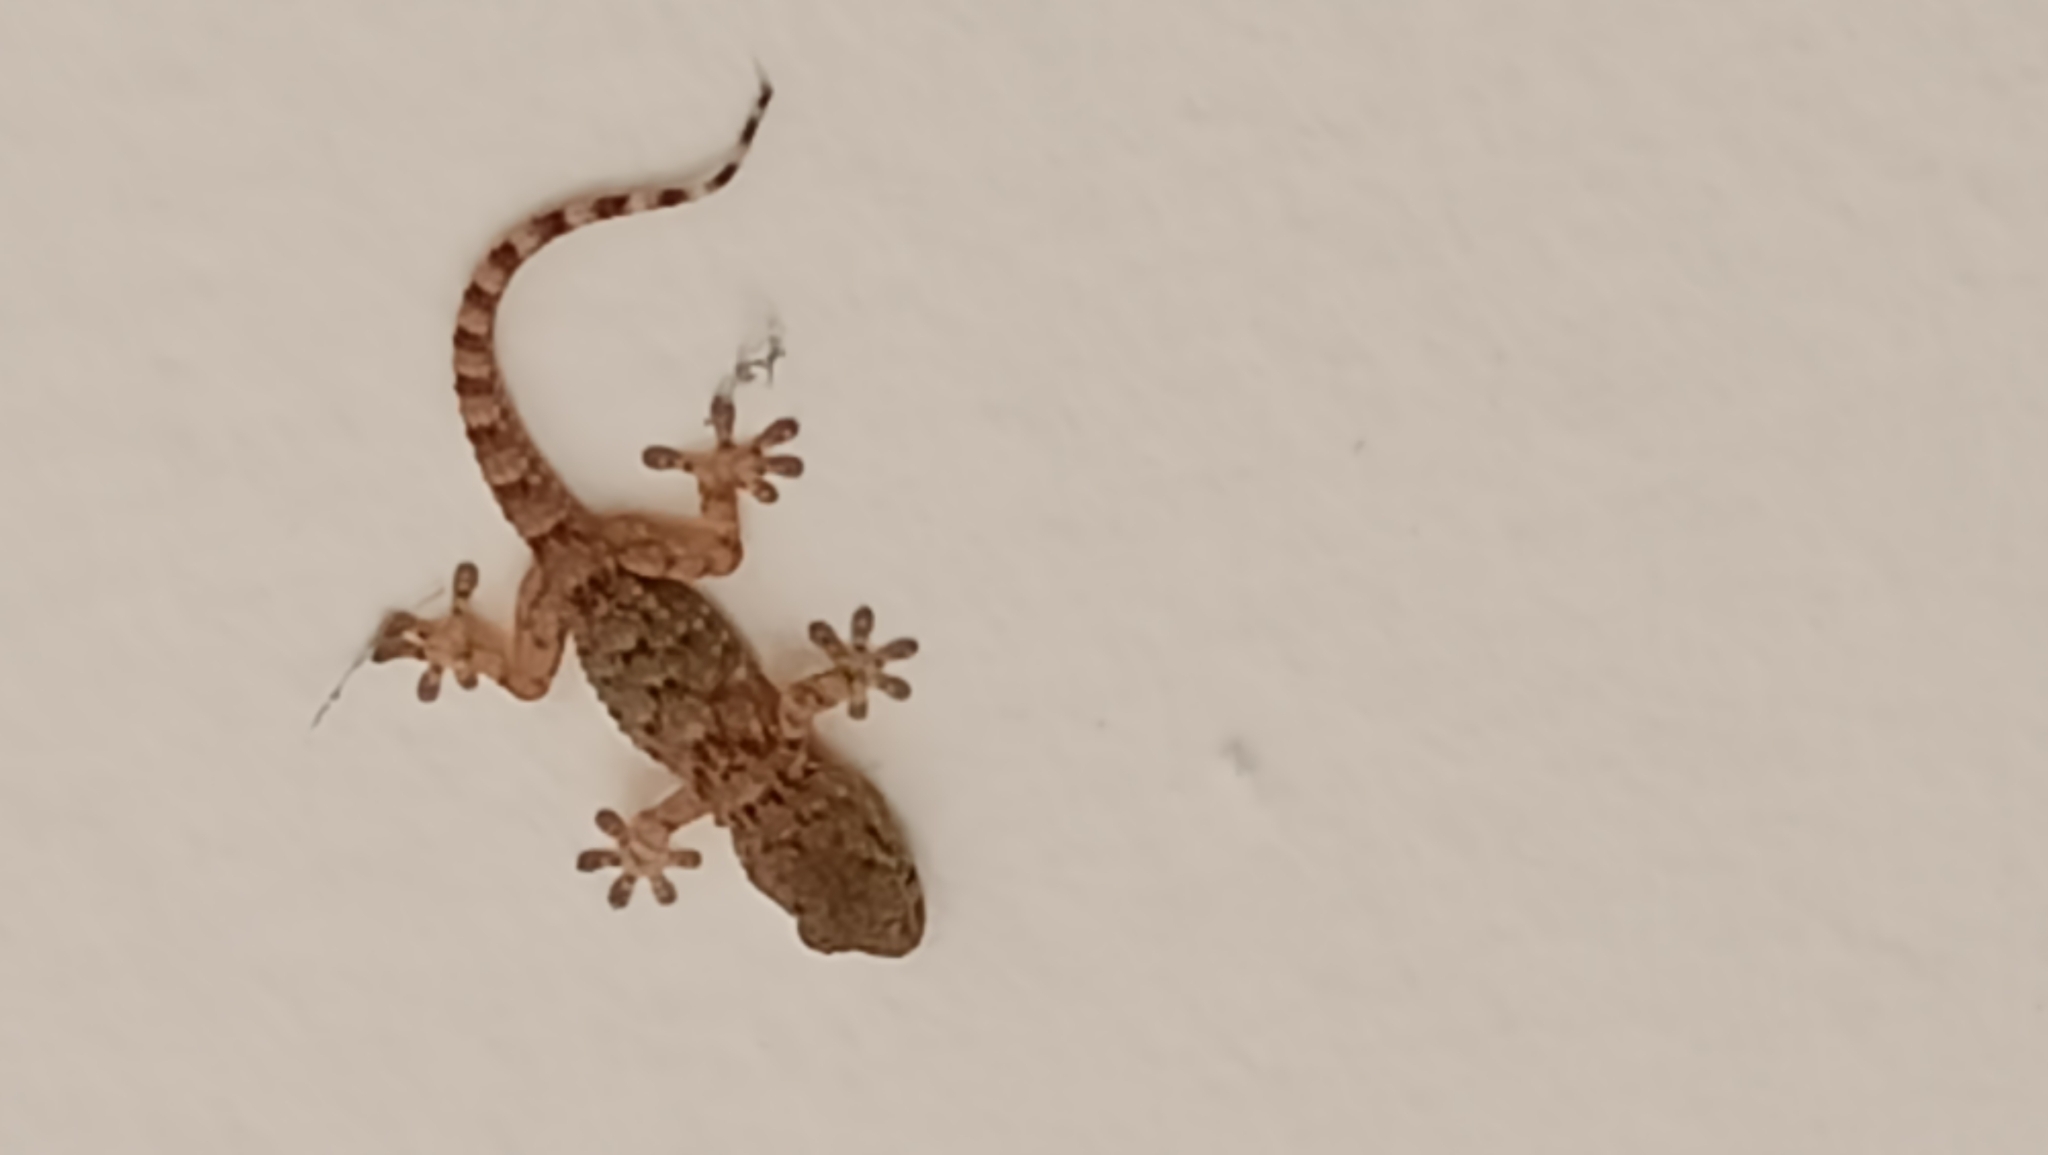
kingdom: Animalia
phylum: Chordata
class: Squamata
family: Phyllodactylidae
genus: Tarentola
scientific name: Tarentola mauritanica
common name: Moorish gecko
